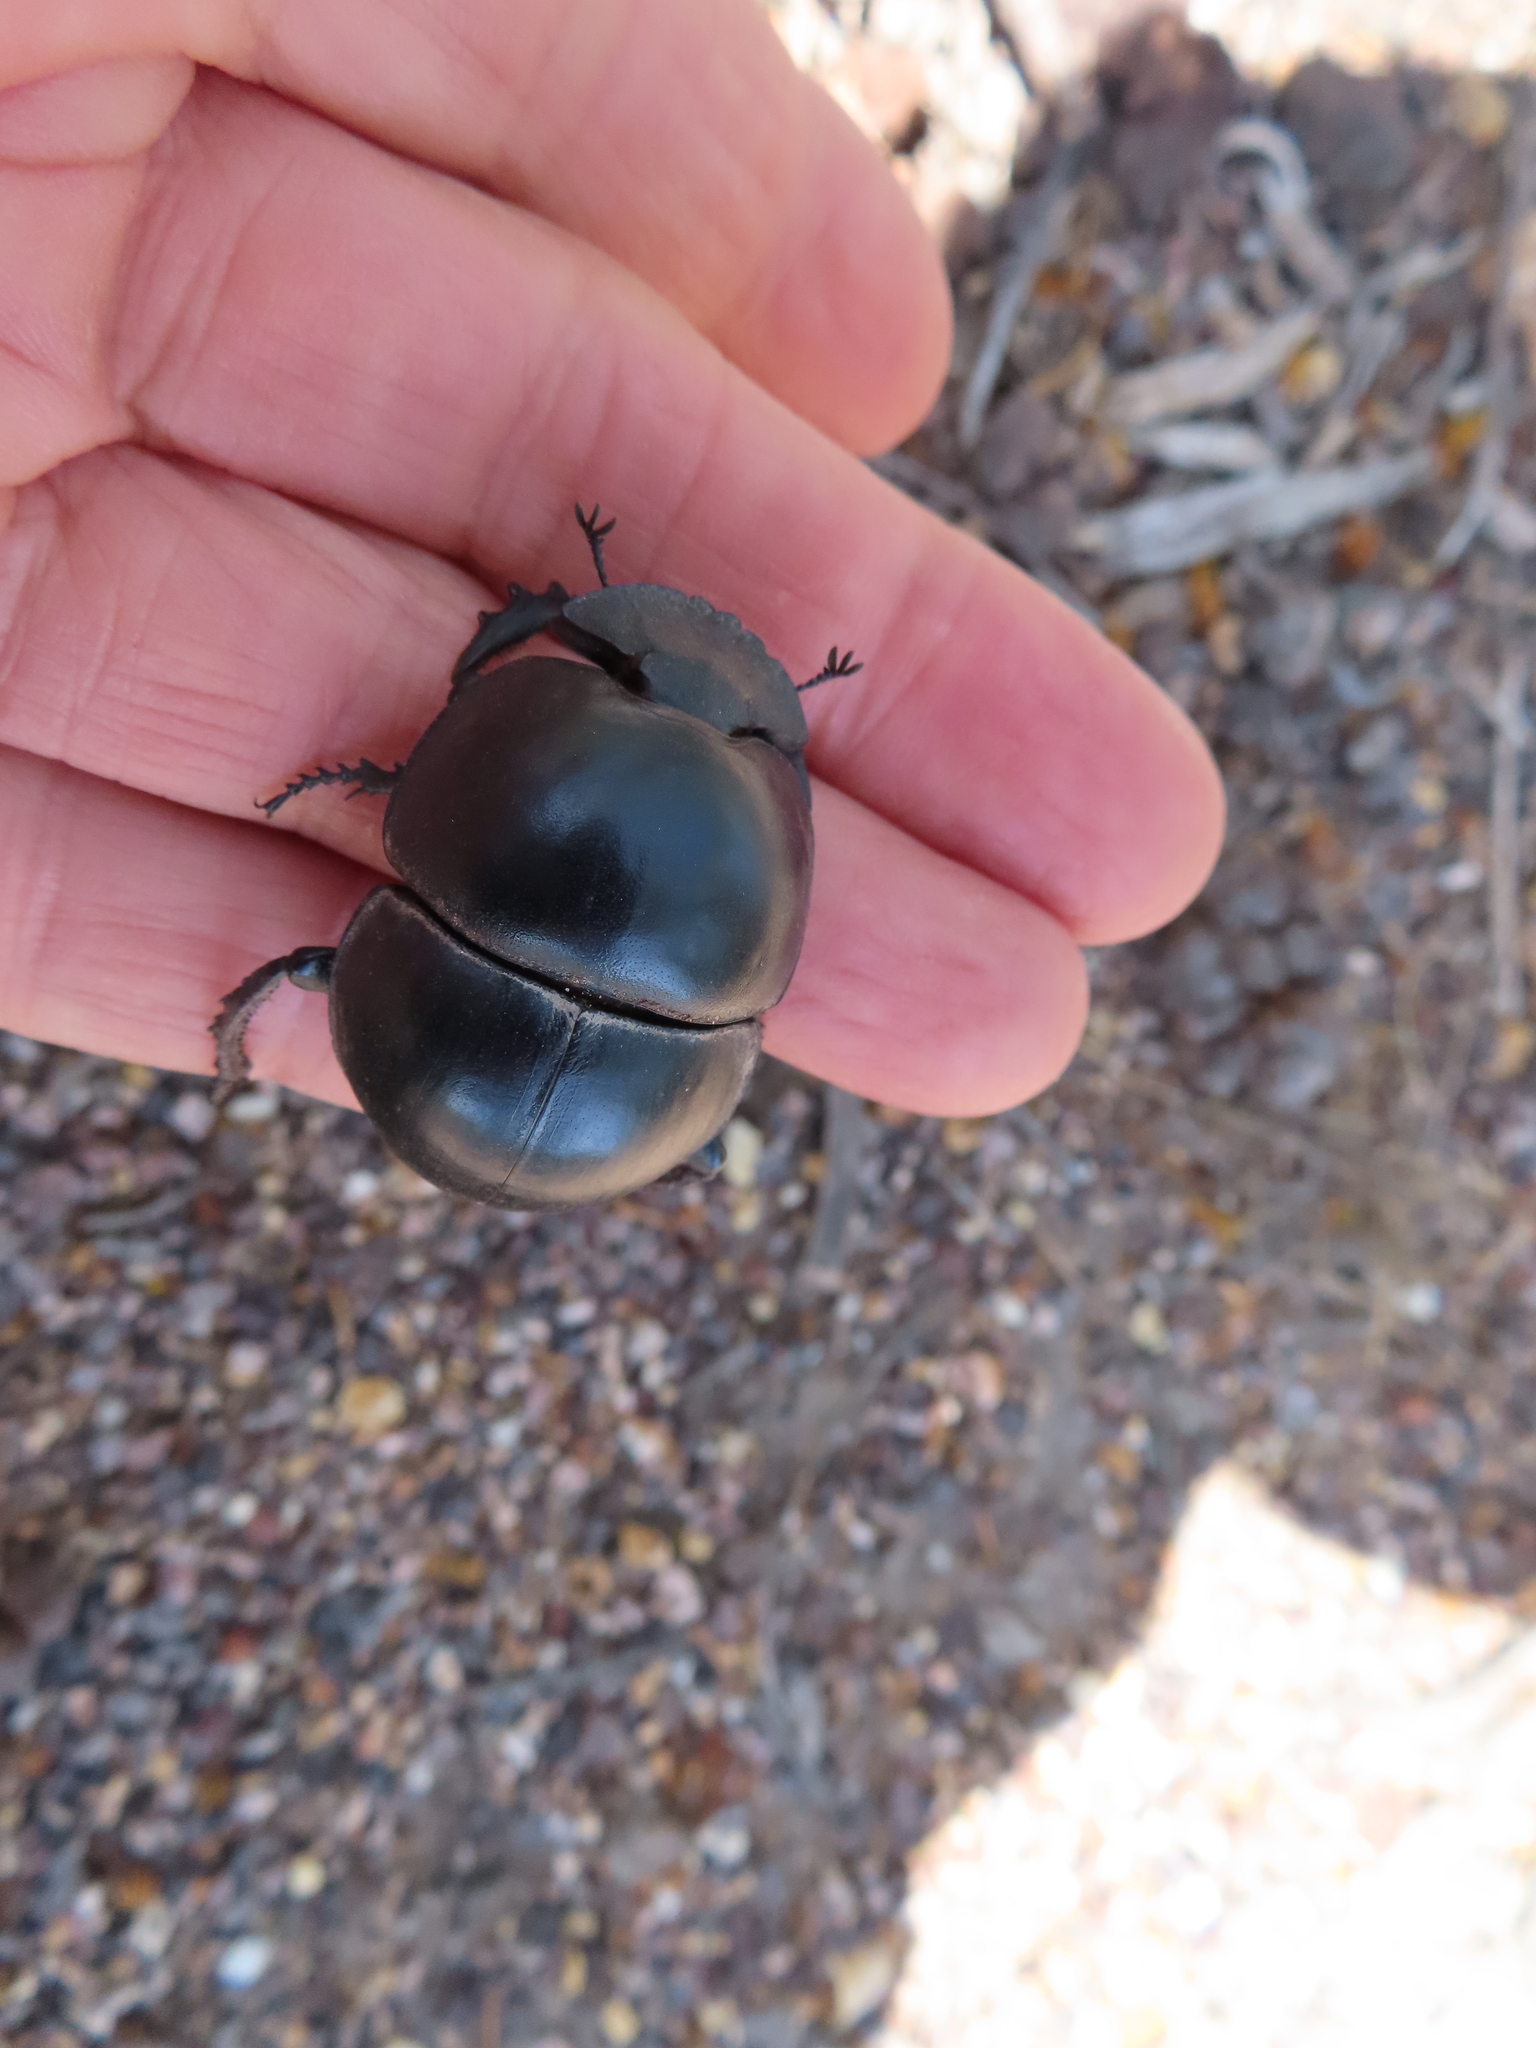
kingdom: Animalia
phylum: Arthropoda
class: Insecta
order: Coleoptera
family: Scarabaeidae
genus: Circellium
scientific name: Circellium bacchus
